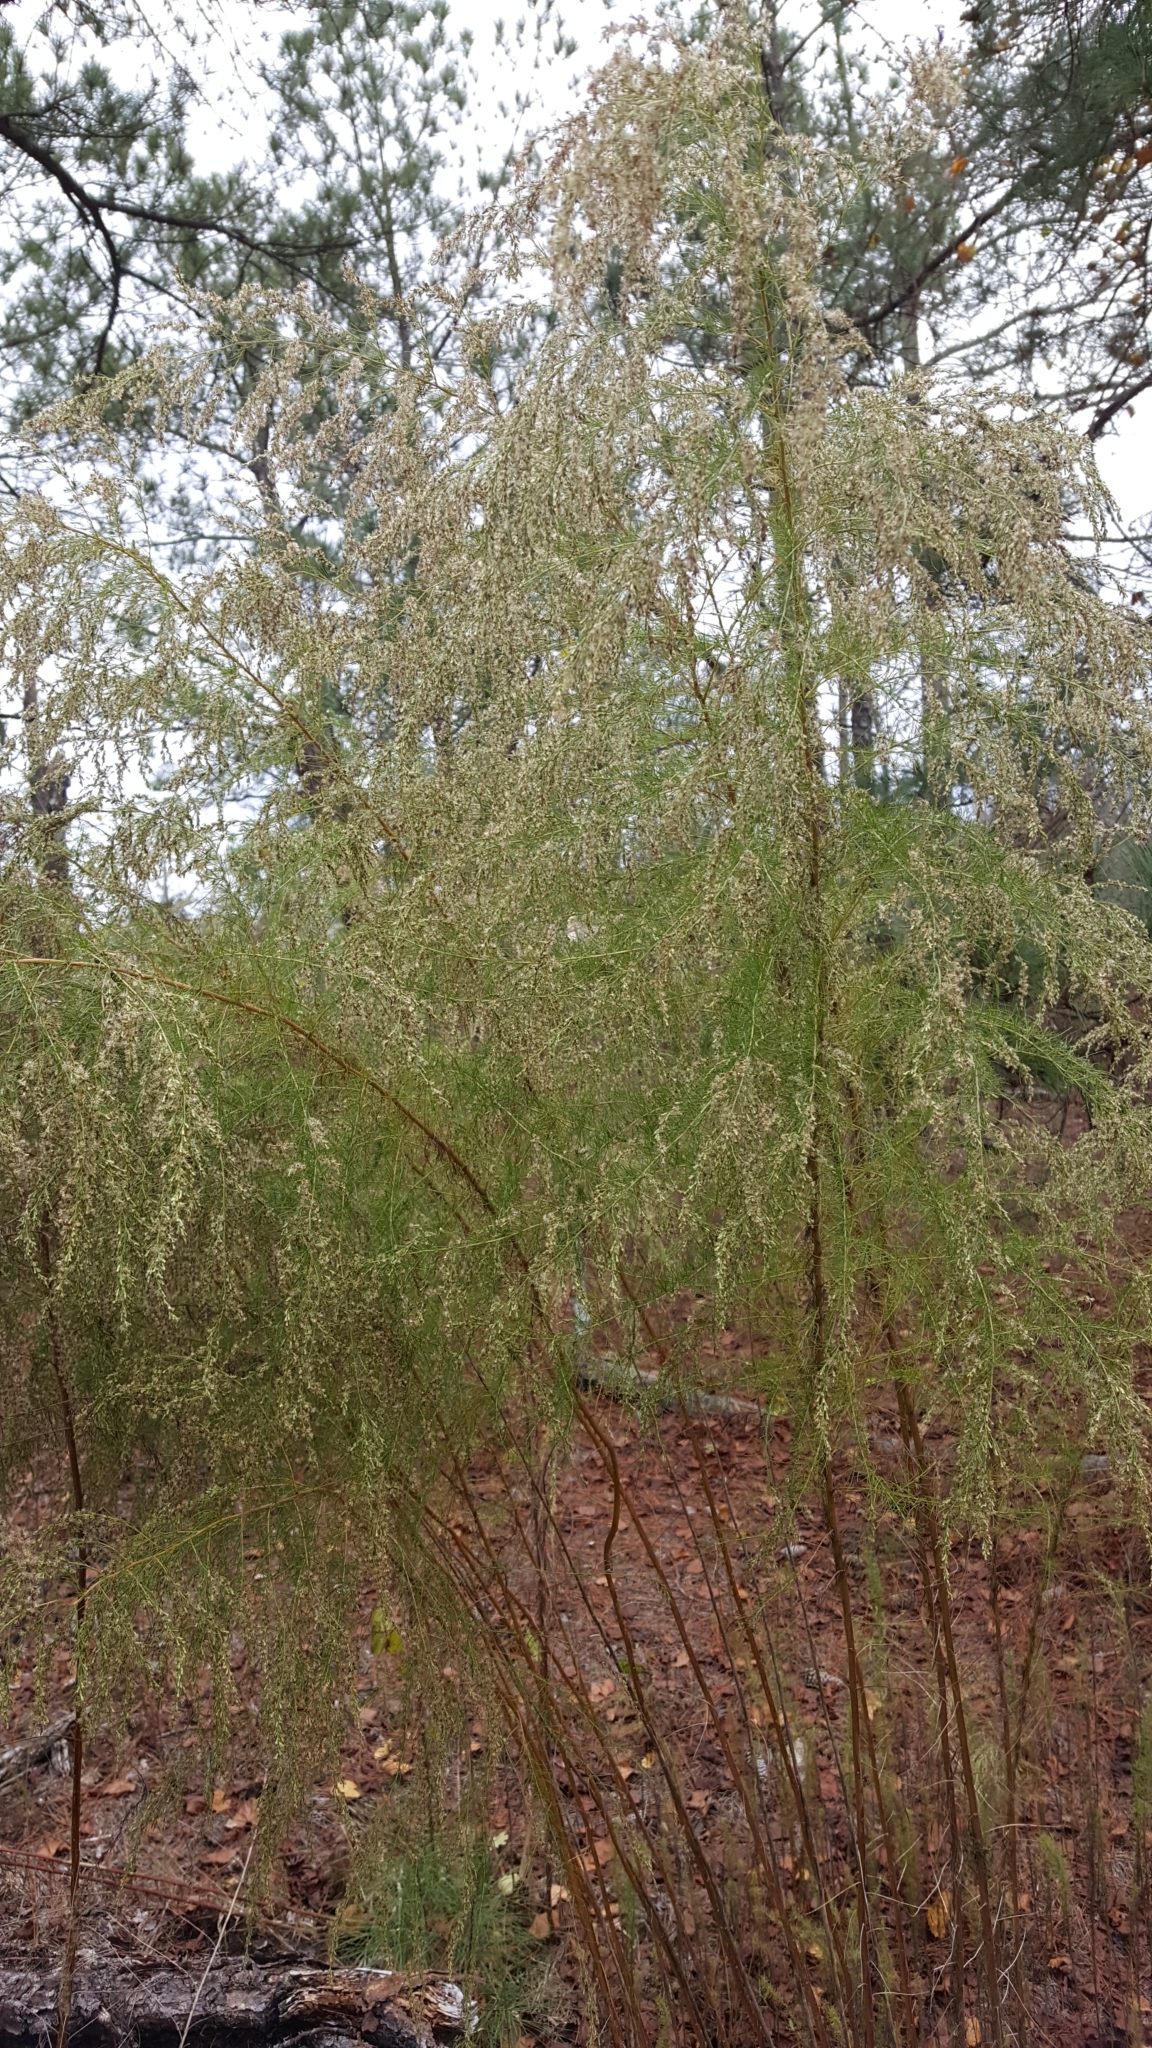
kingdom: Plantae
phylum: Tracheophyta
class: Magnoliopsida
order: Asterales
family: Asteraceae
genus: Eupatorium
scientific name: Eupatorium capillifolium
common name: Dog-fennel
